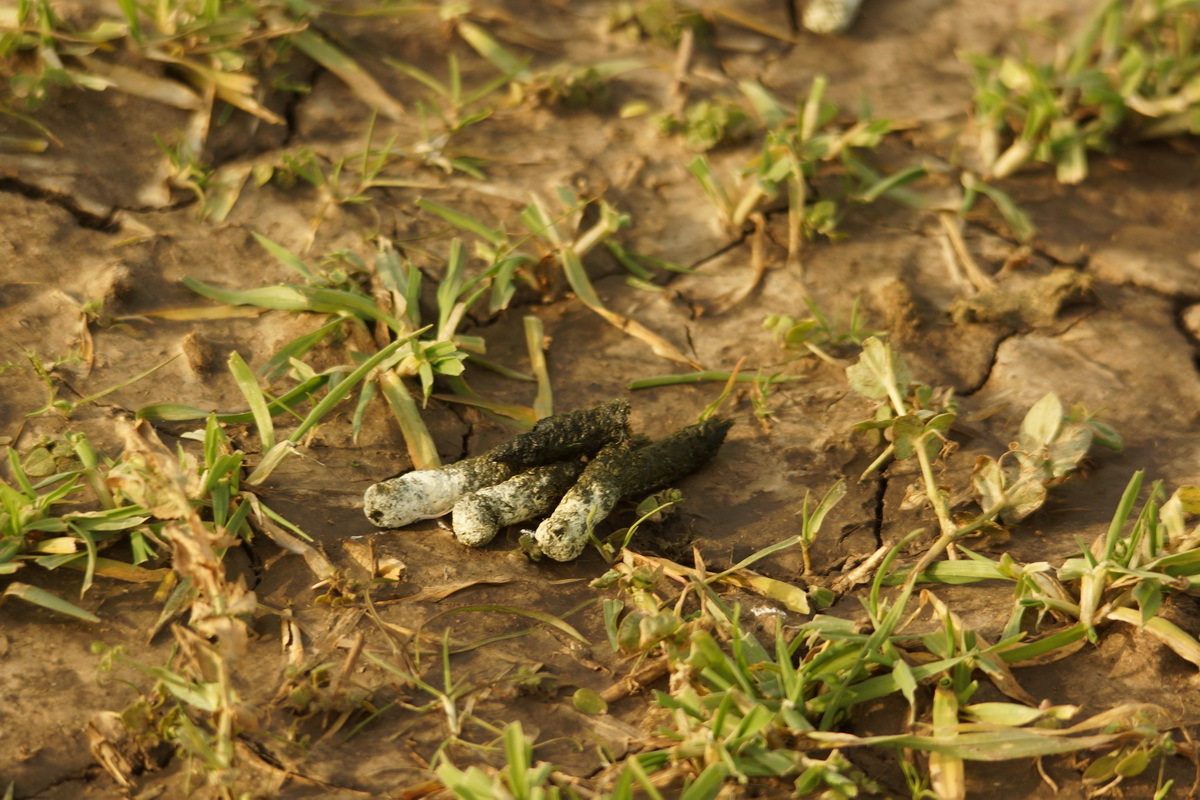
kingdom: Animalia
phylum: Chordata
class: Aves
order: Anseriformes
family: Anatidae
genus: Anser
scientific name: Anser albifrons
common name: Greater white-fronted goose
